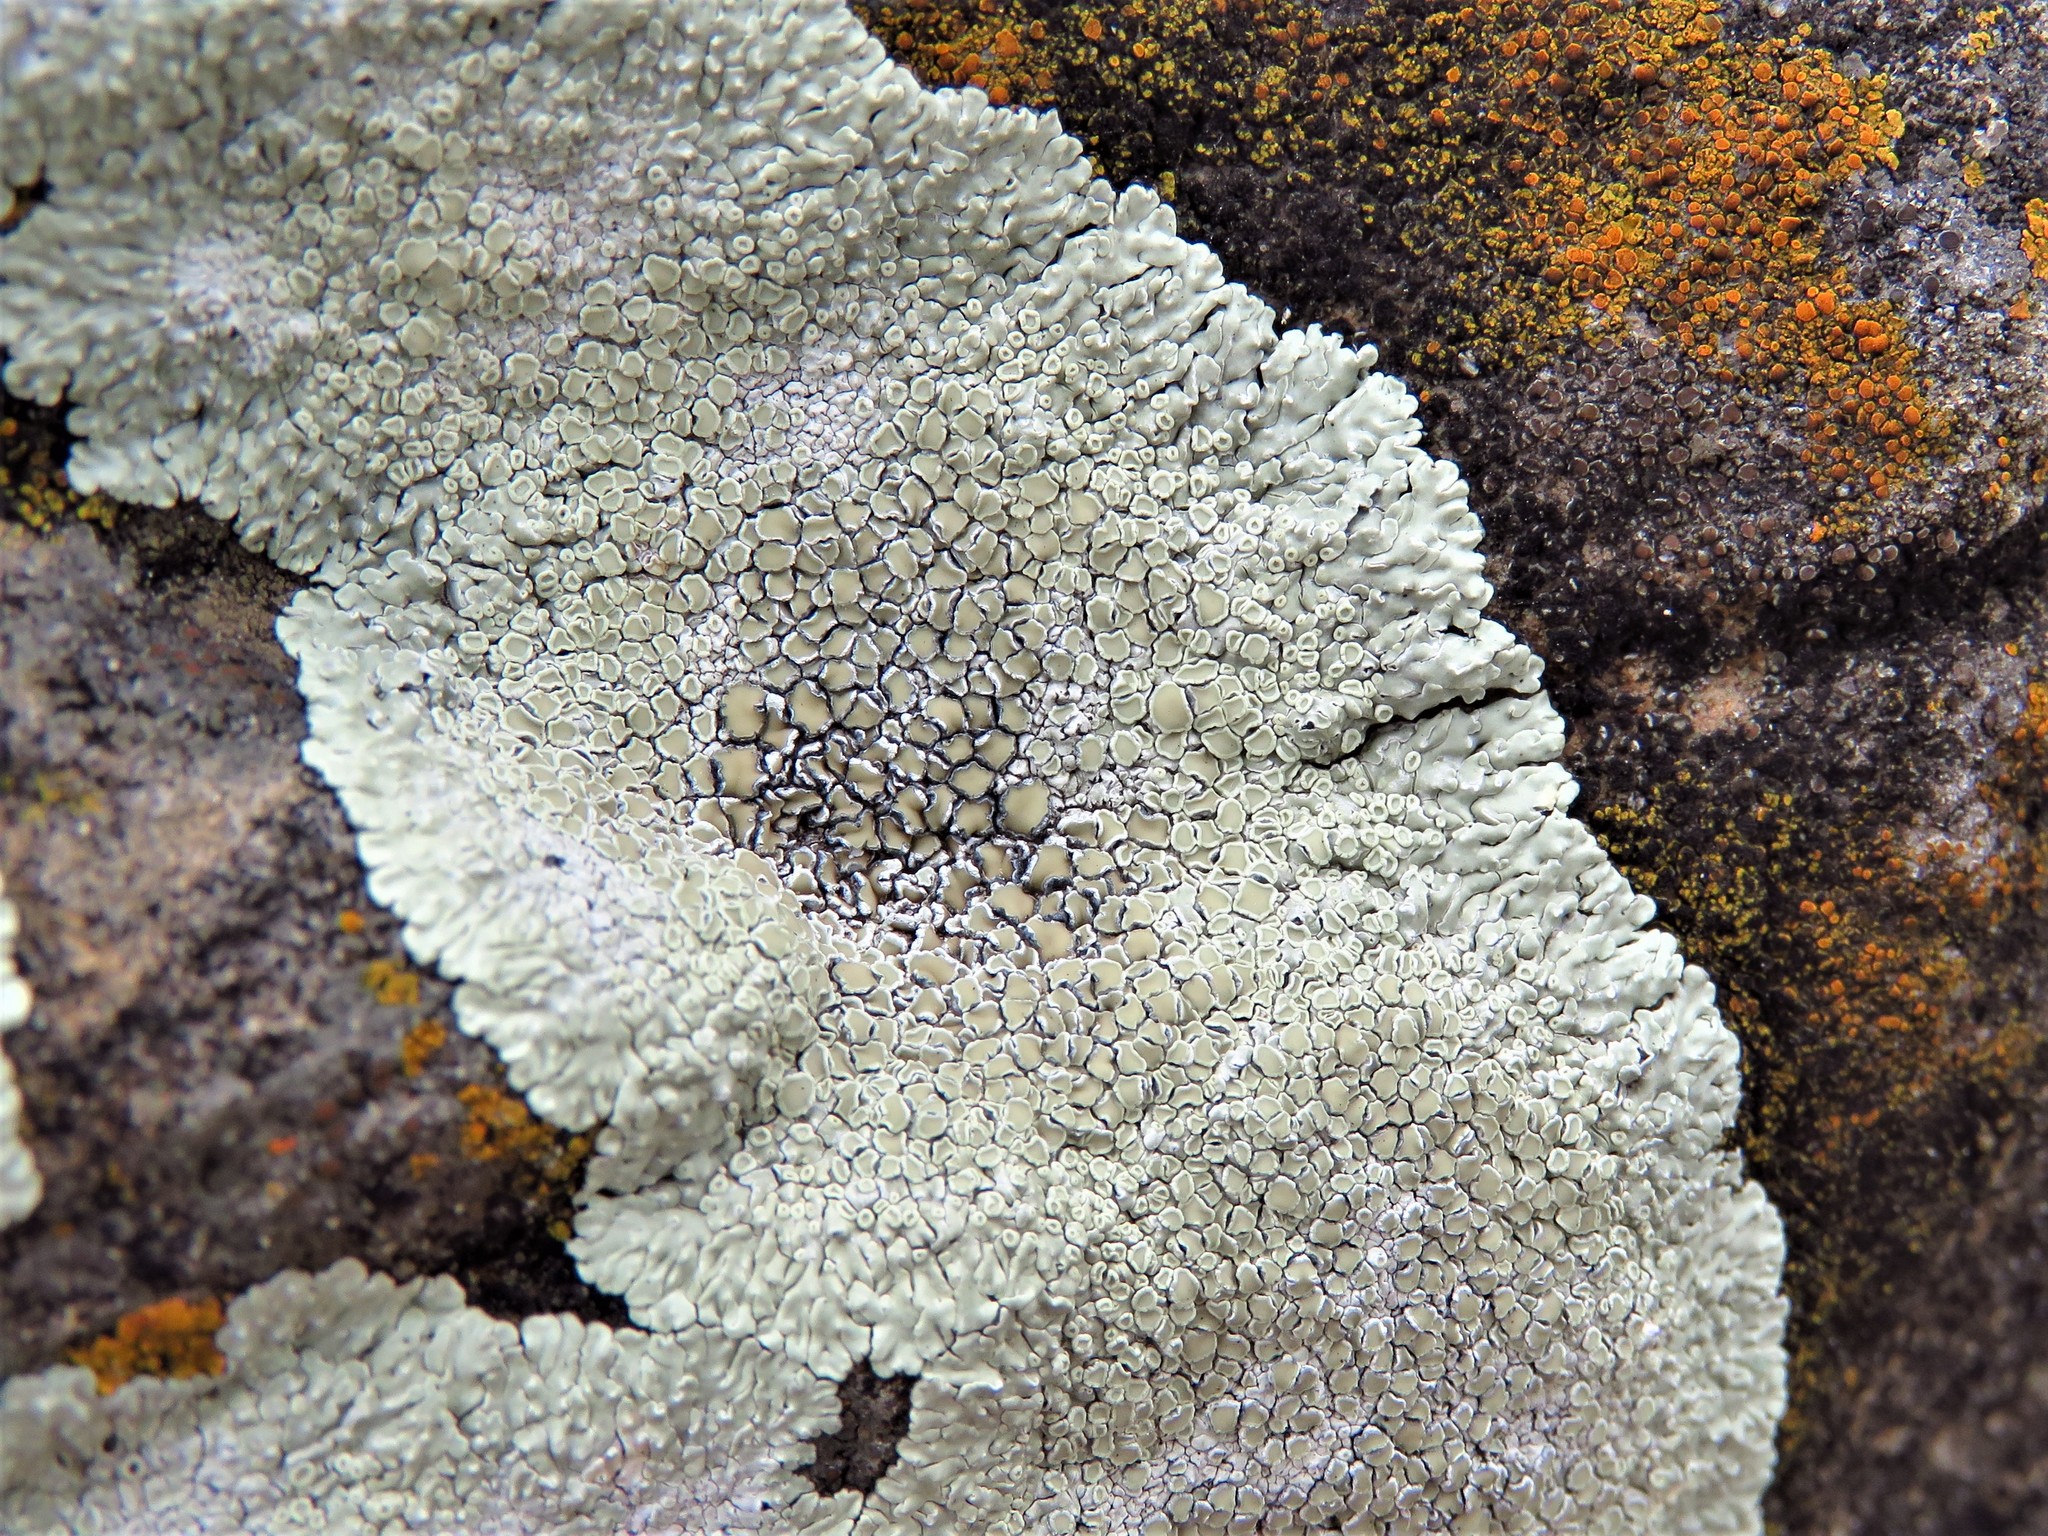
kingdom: Fungi
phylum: Ascomycota
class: Lecanoromycetes
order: Lecanorales
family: Lecanoraceae
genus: Protoparmeliopsis
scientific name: Protoparmeliopsis muralis
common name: Stonewall rim lichen
